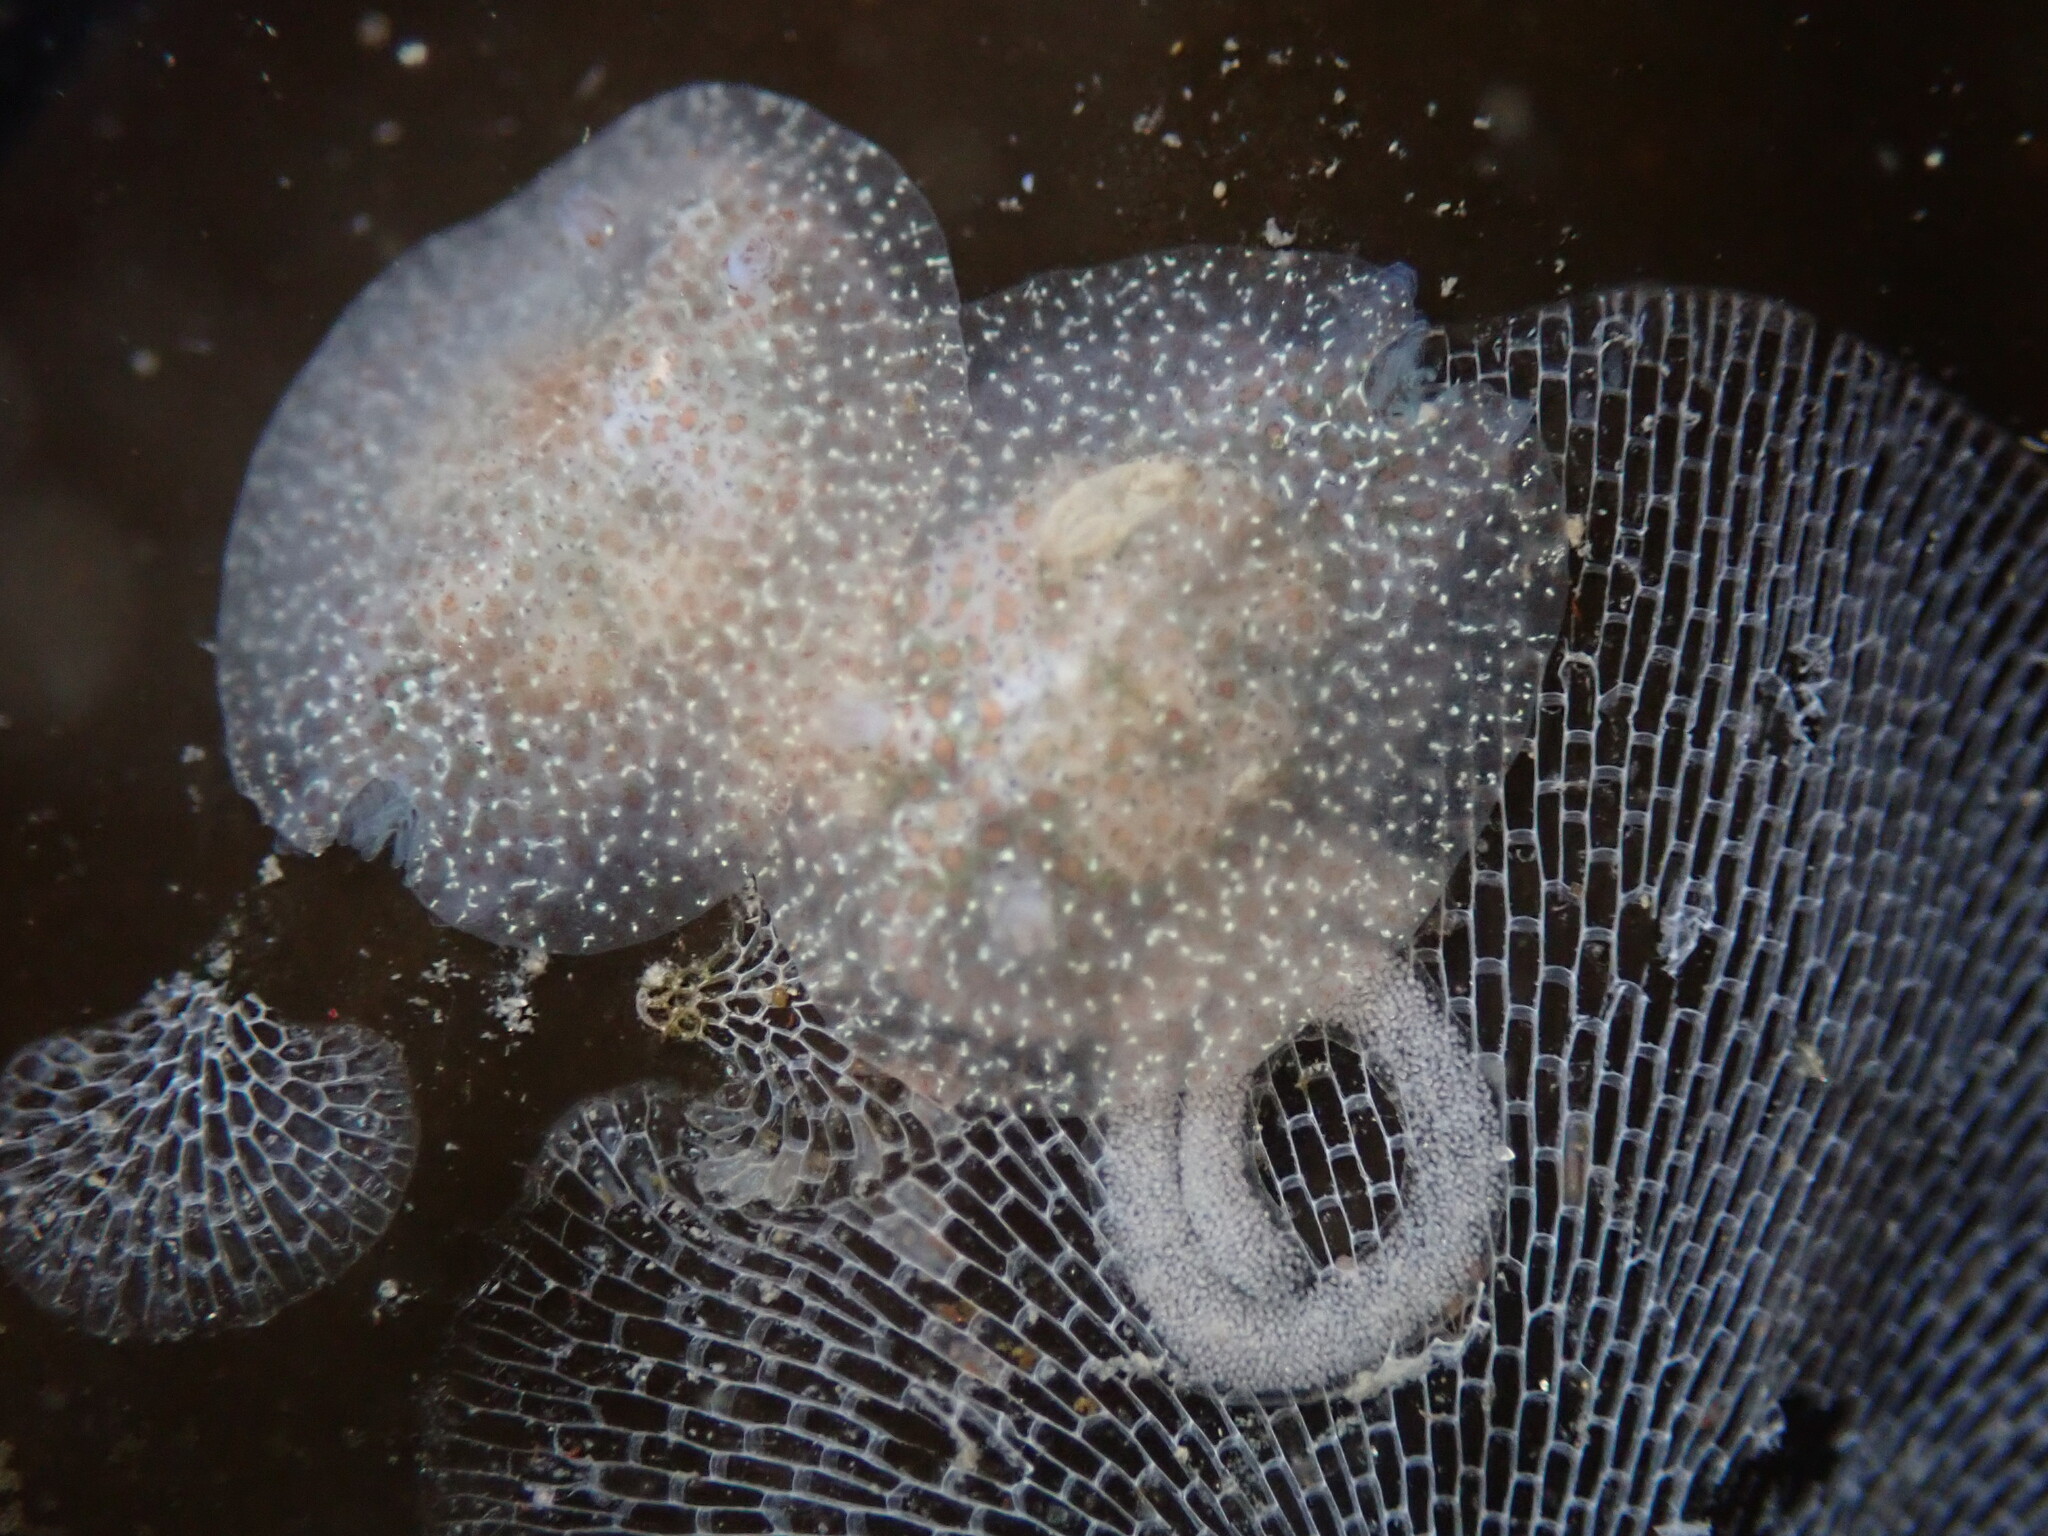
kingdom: Animalia
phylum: Mollusca
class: Gastropoda
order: Nudibranchia
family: Corambidae
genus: Corambe
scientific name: Corambe pacifica
